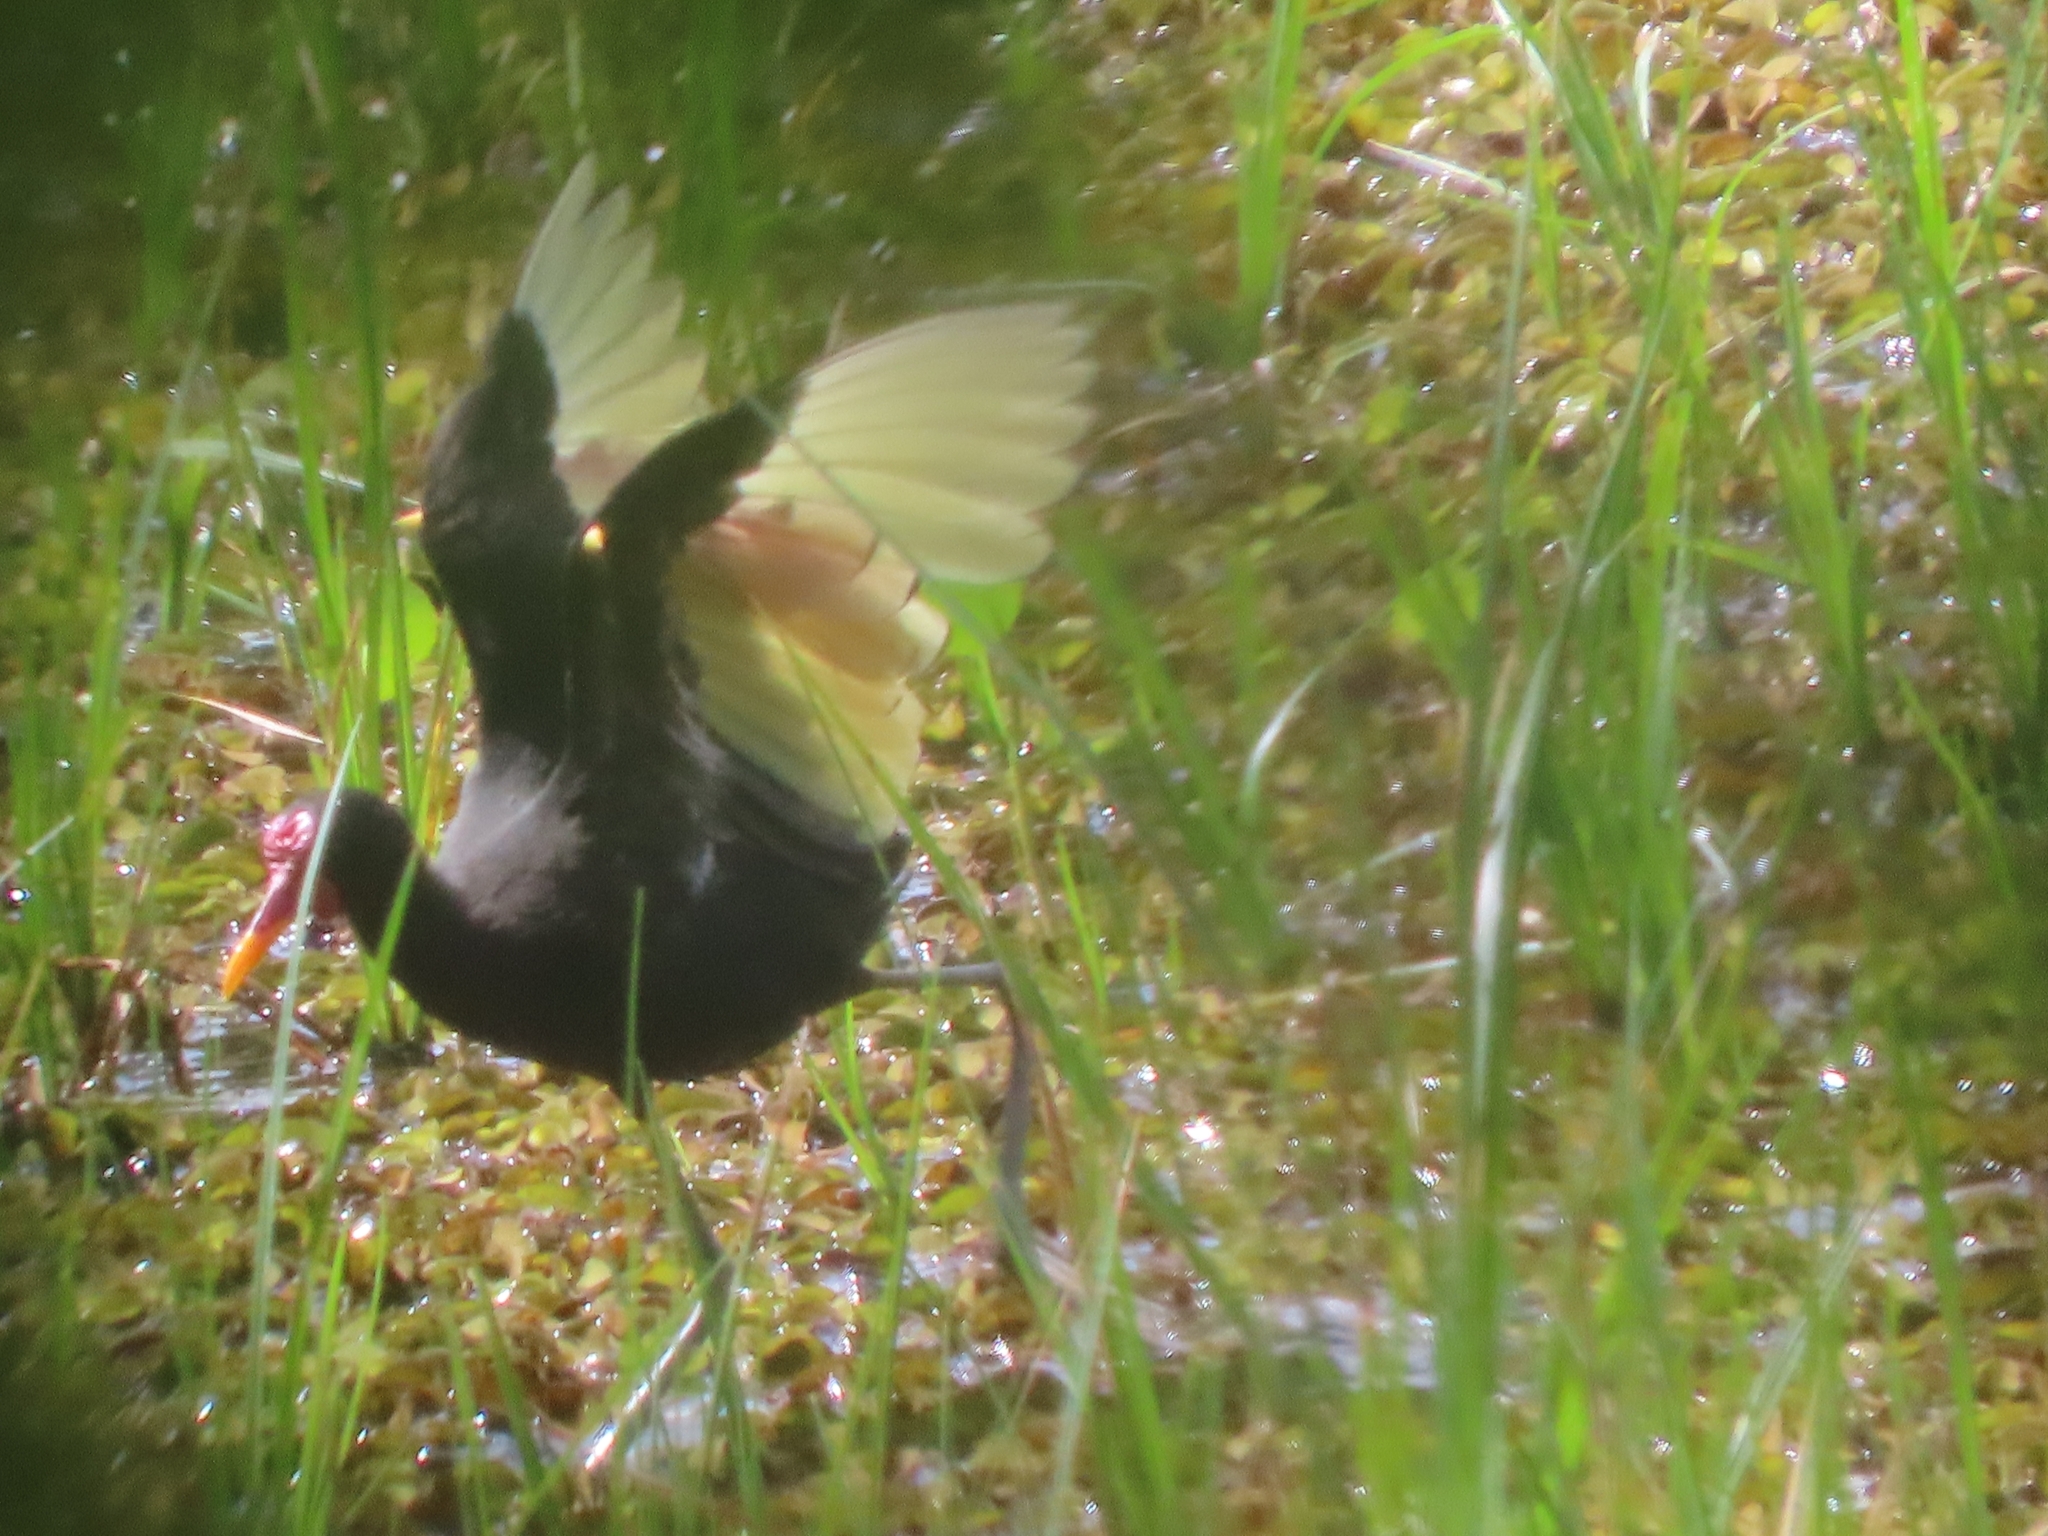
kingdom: Animalia
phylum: Chordata
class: Aves
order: Charadriiformes
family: Jacanidae
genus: Jacana
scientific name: Jacana jacana
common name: Wattled jacana
